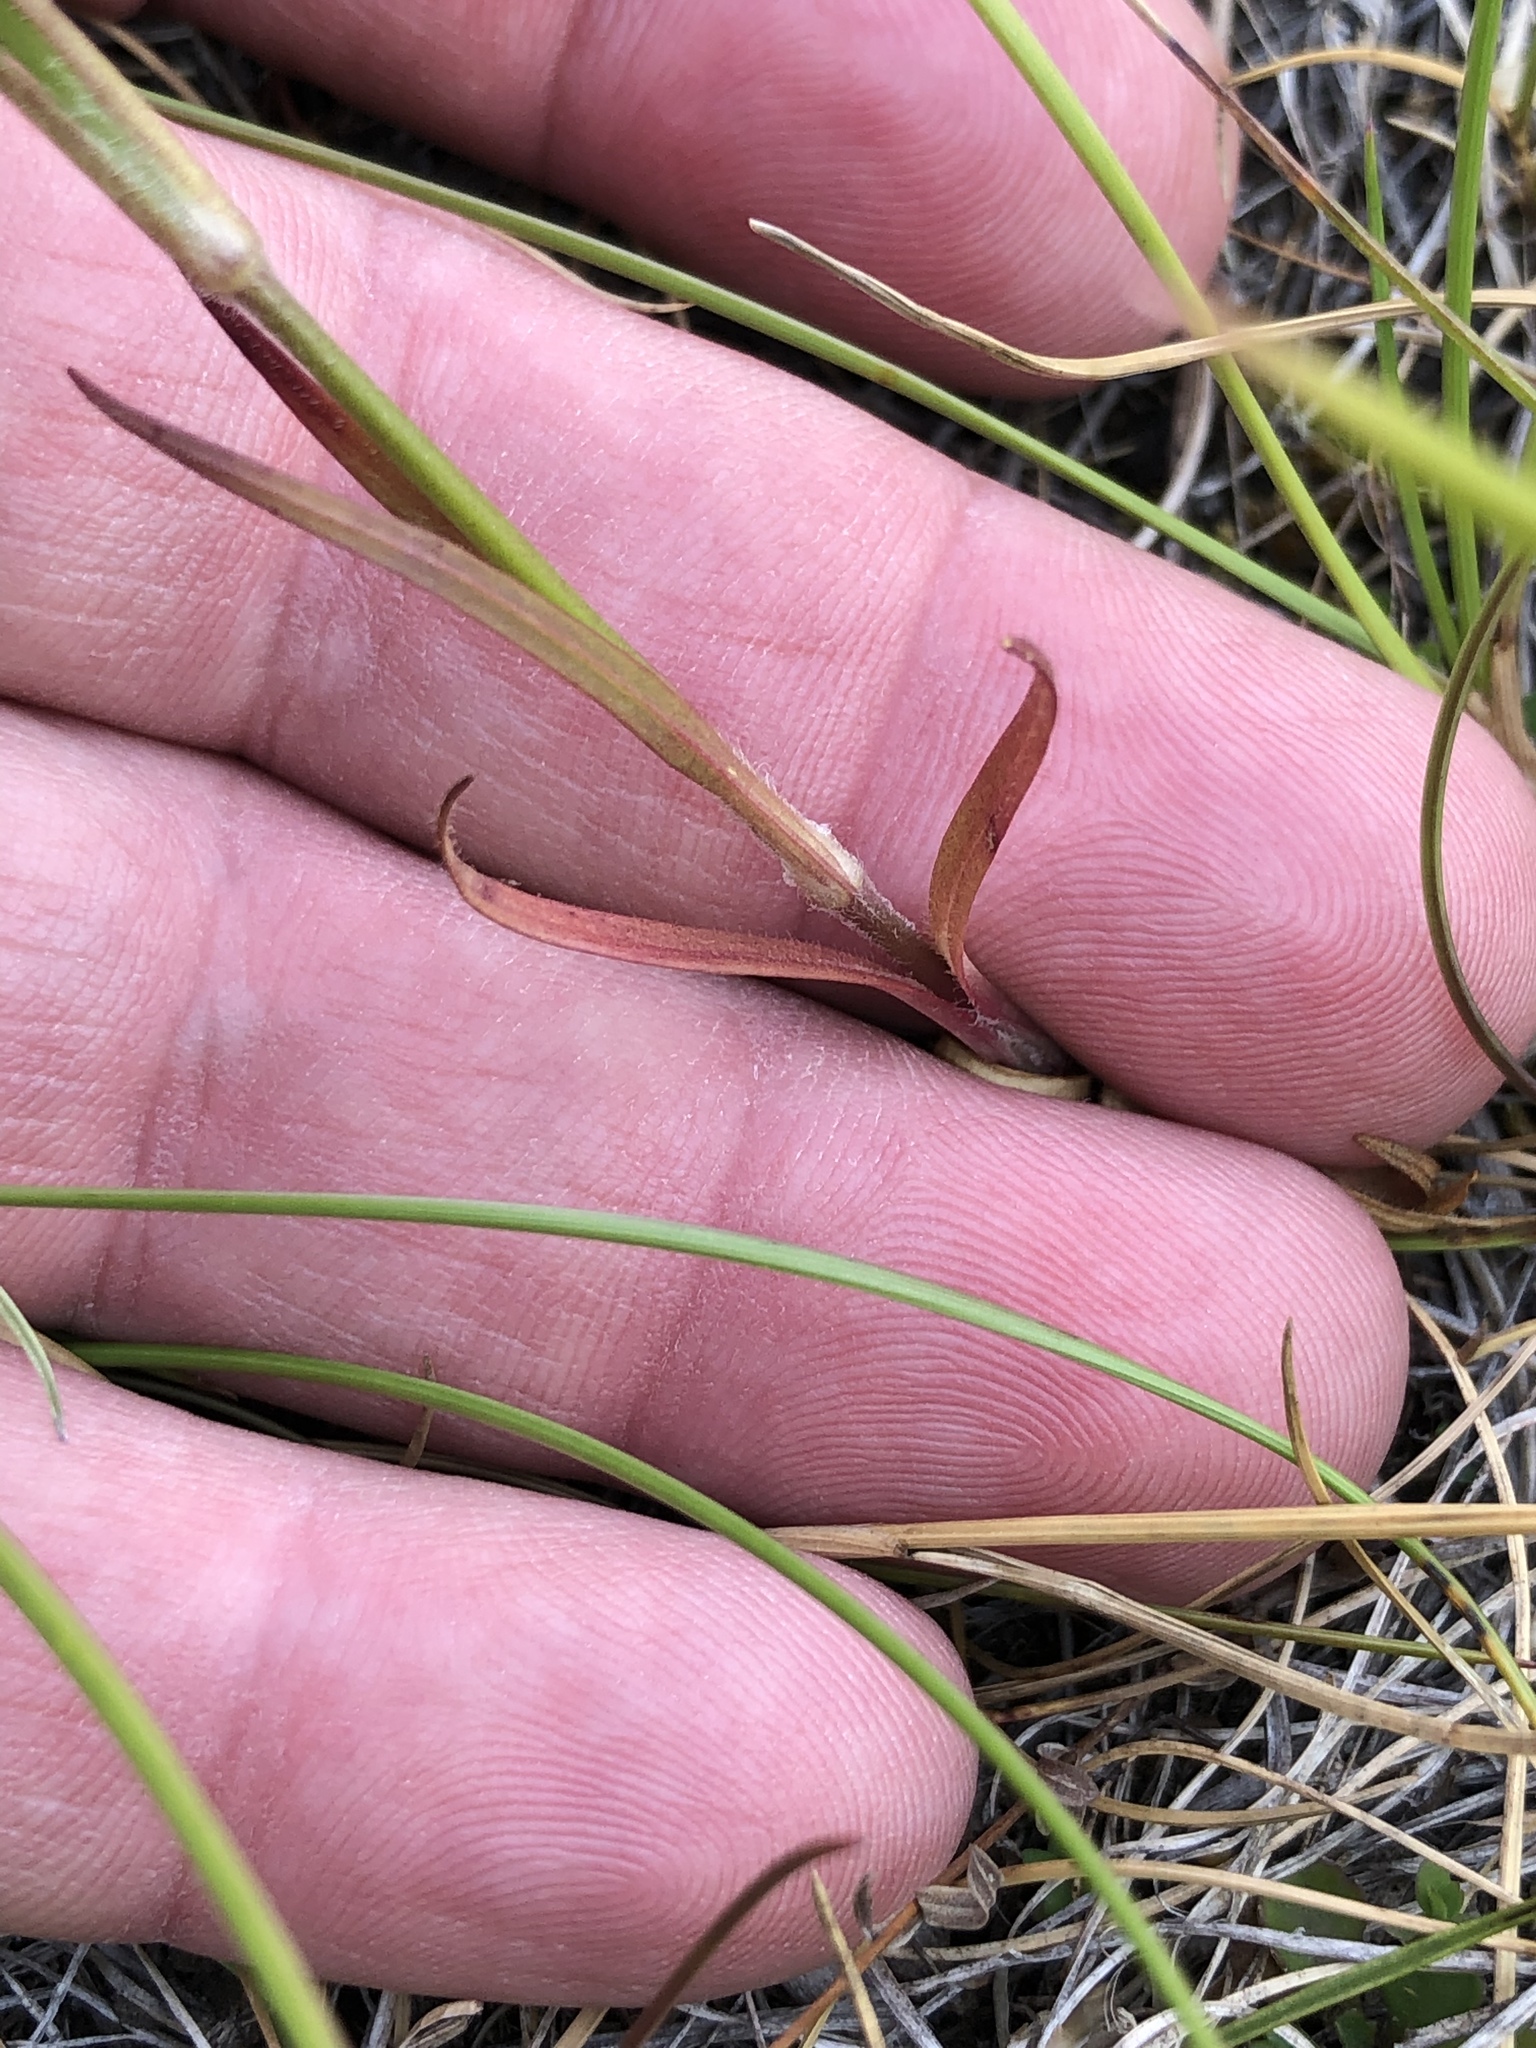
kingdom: Plantae
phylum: Tracheophyta
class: Magnoliopsida
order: Caryophyllales
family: Caryophyllaceae
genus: Dianthus
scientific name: Dianthus armeria
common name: Deptford pink
